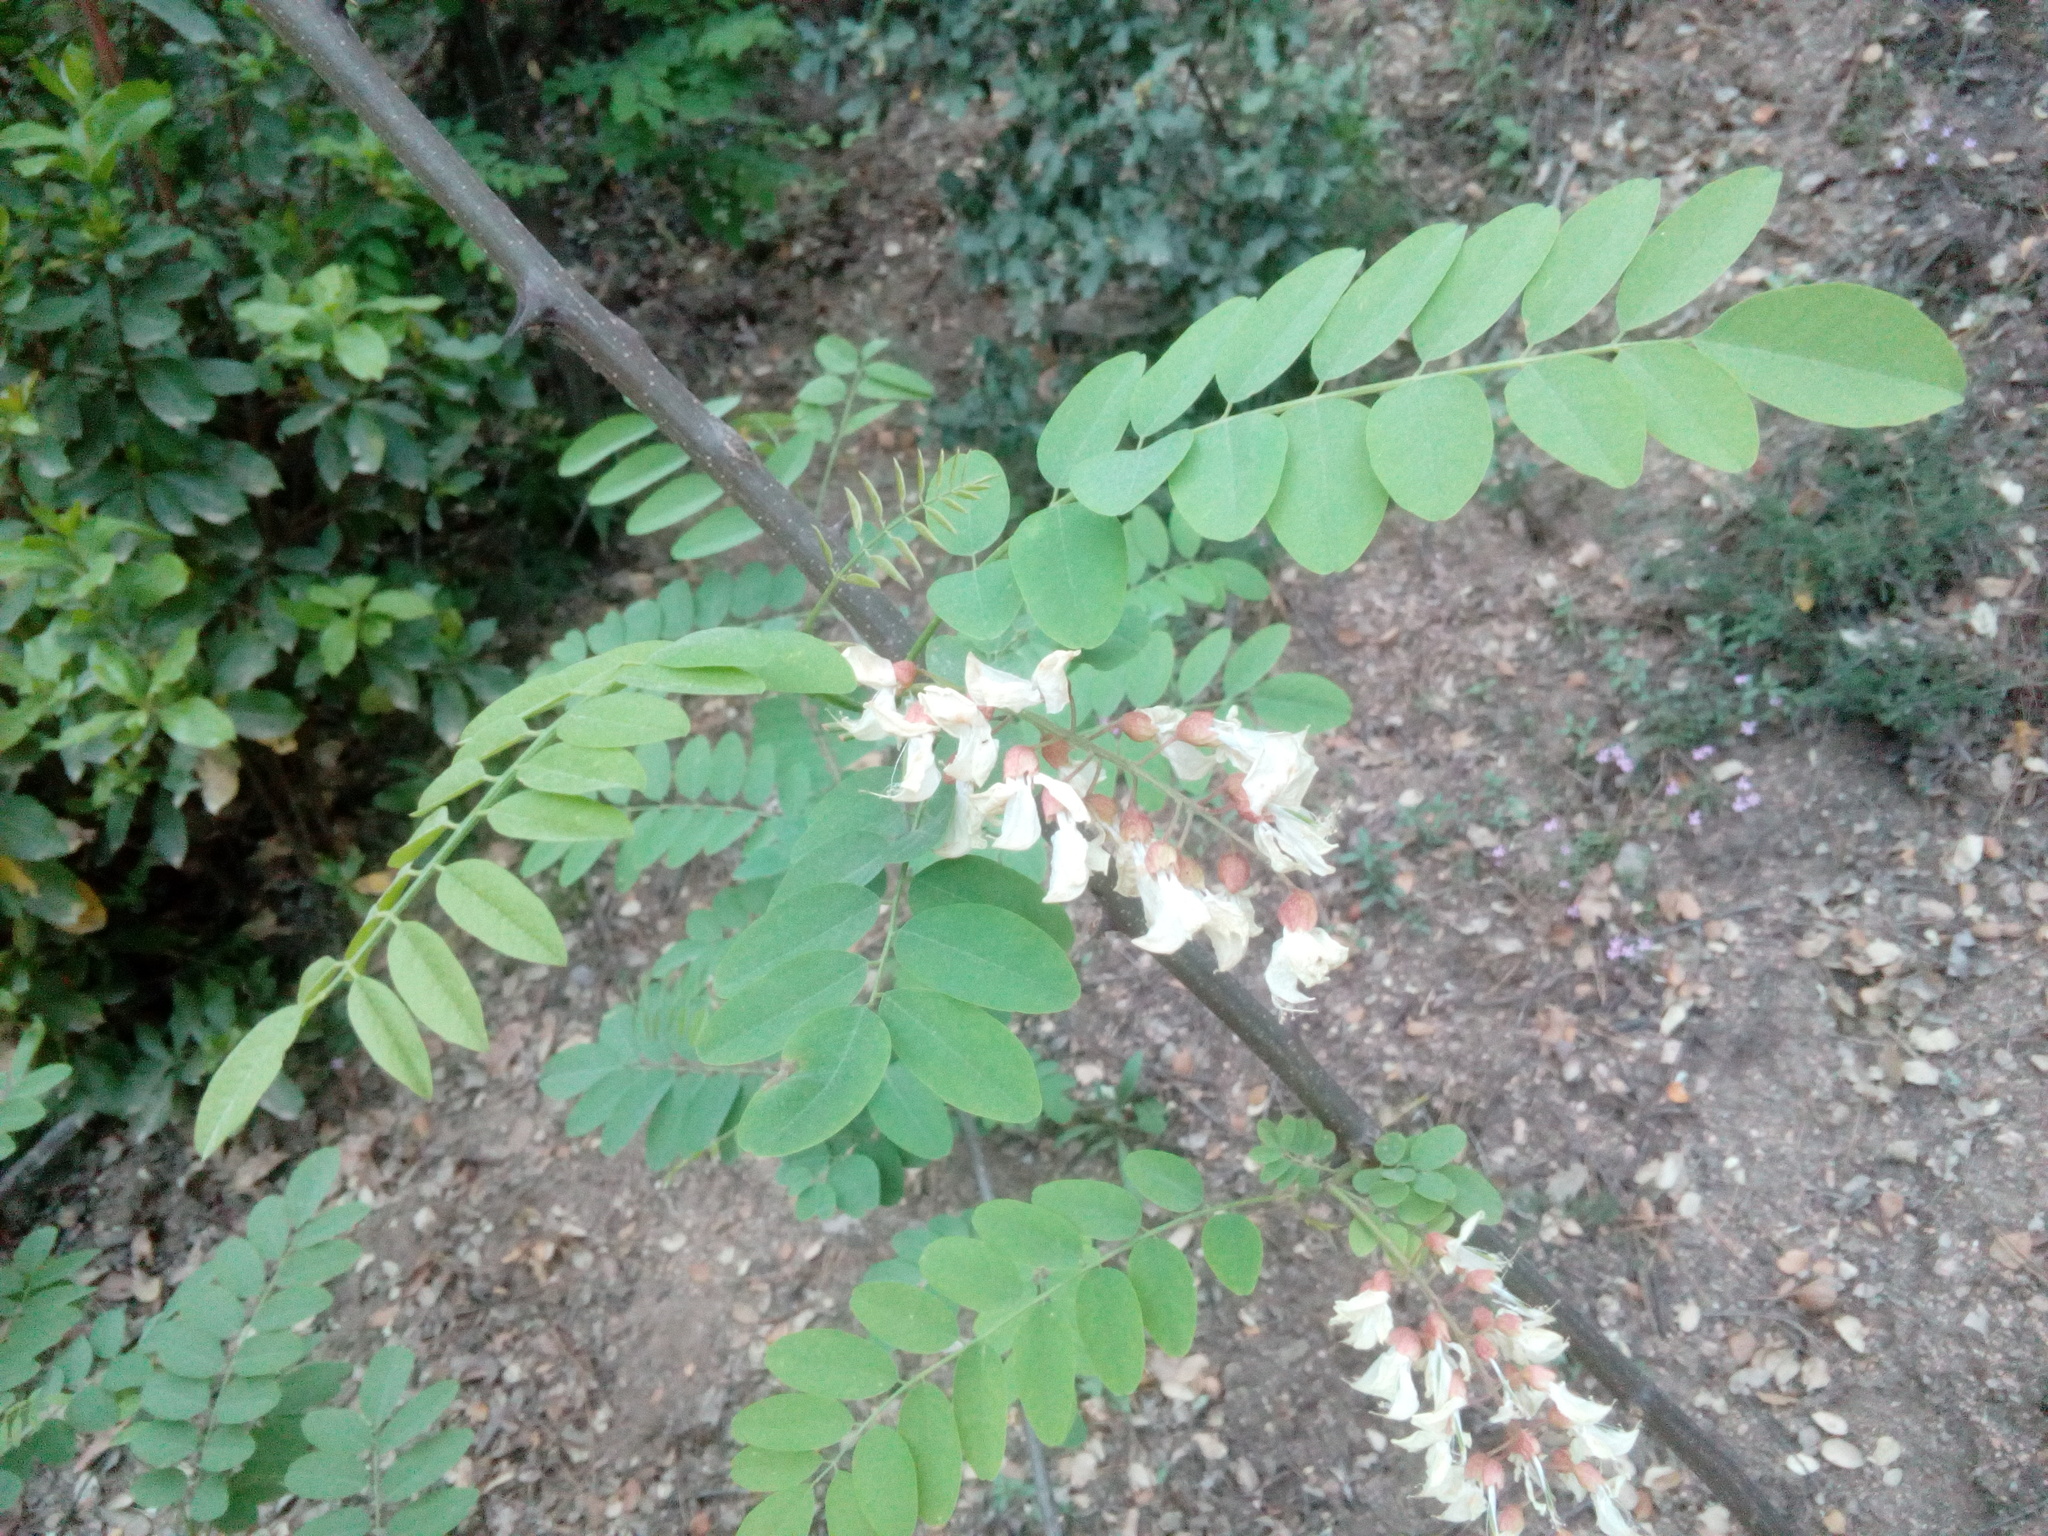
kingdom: Plantae
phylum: Tracheophyta
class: Magnoliopsida
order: Fabales
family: Fabaceae
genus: Robinia
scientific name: Robinia pseudoacacia
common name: Black locust
